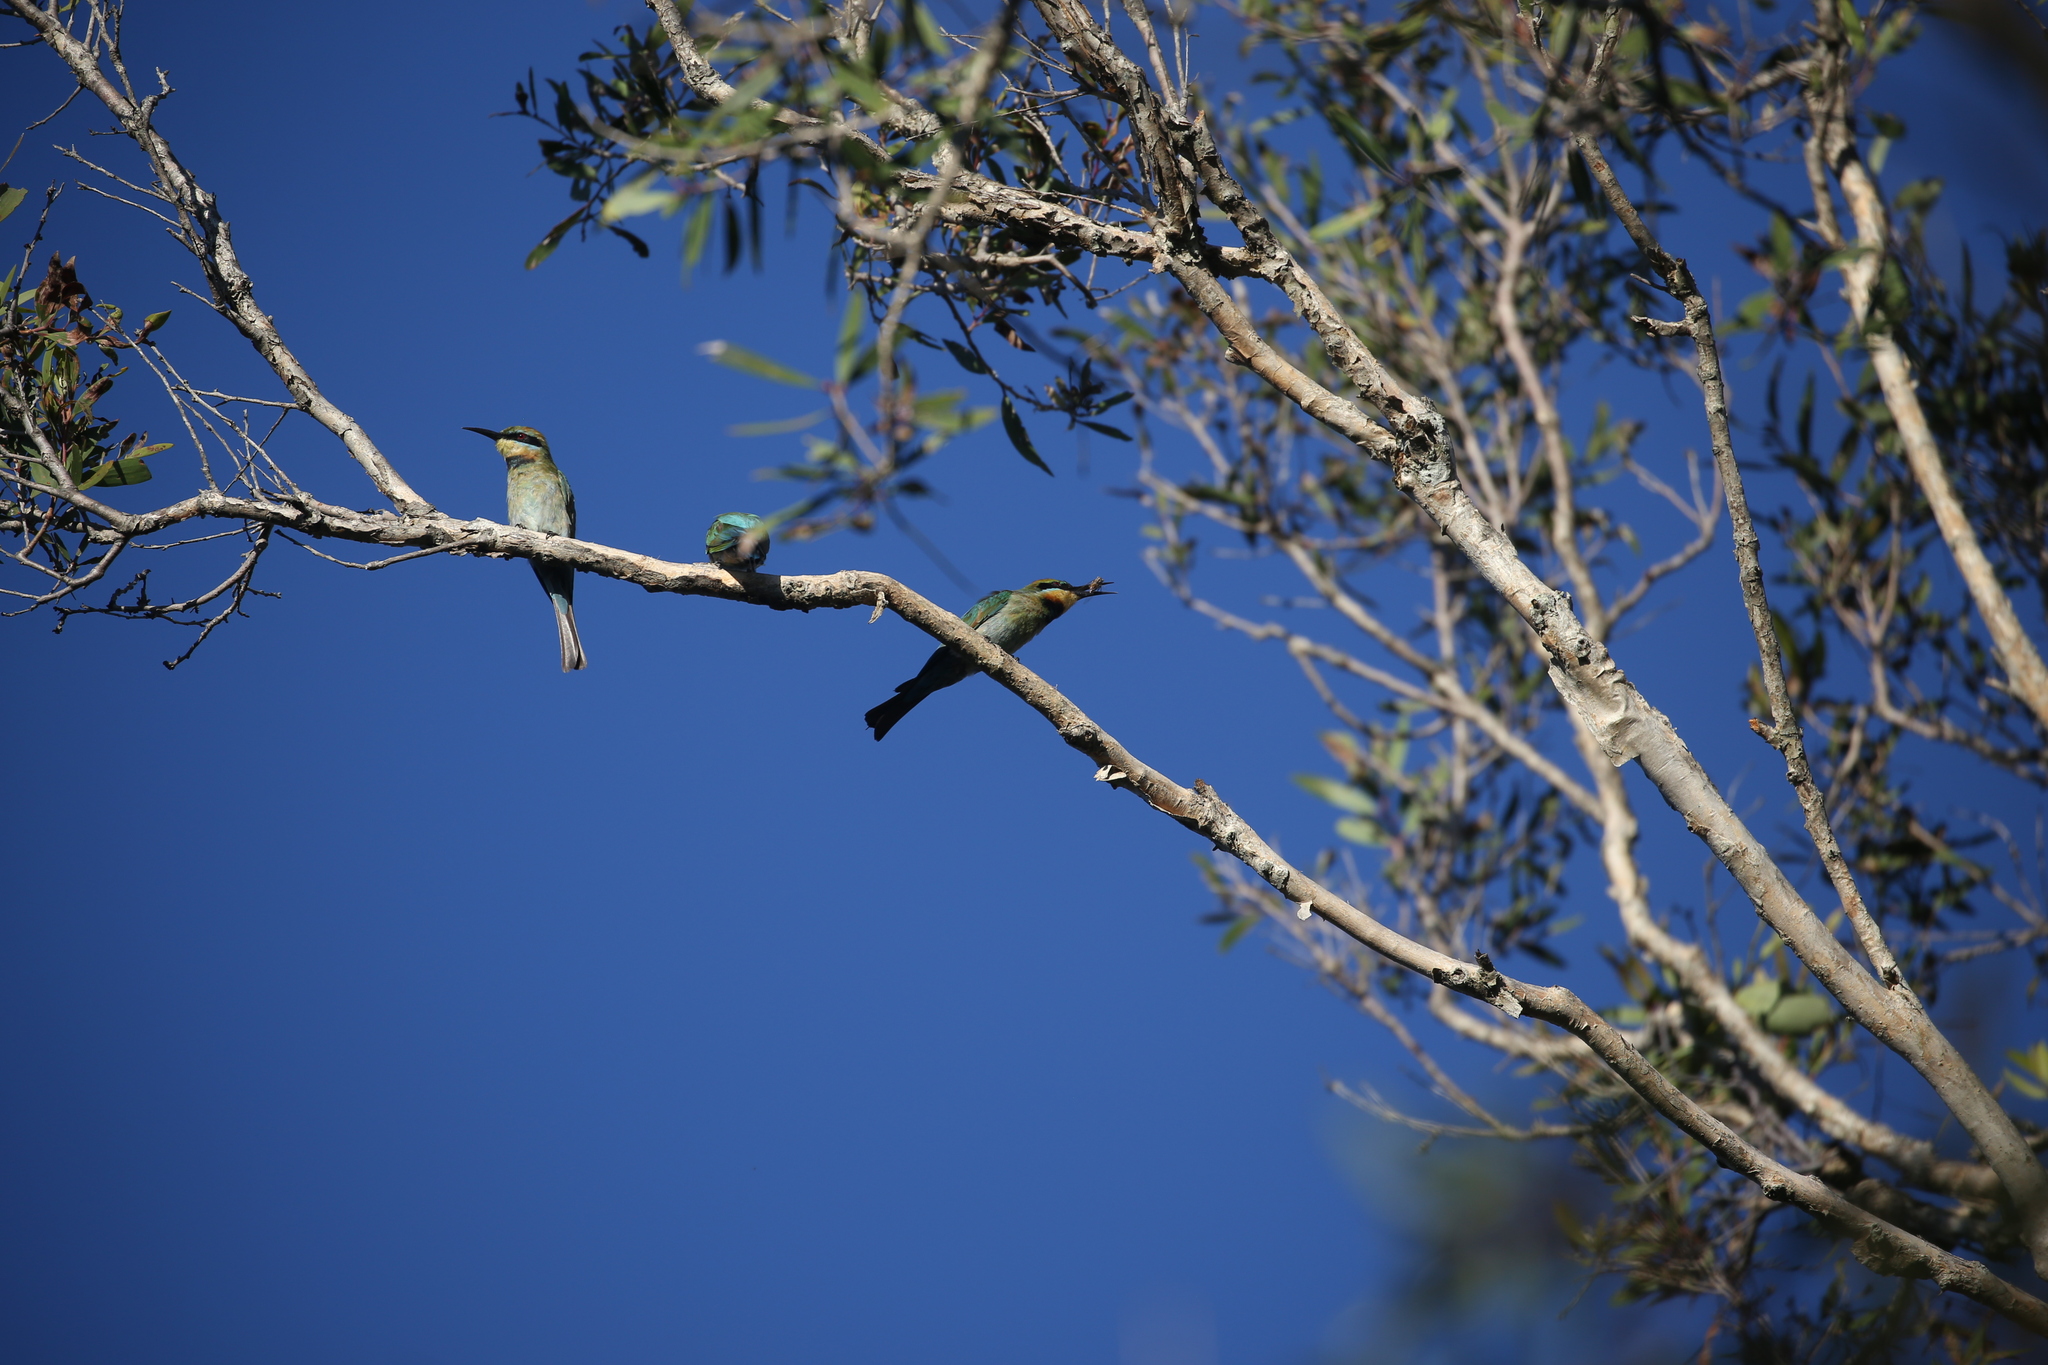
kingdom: Animalia
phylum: Chordata
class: Aves
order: Coraciiformes
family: Meropidae
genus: Merops
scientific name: Merops ornatus
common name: Rainbow bee-eater
